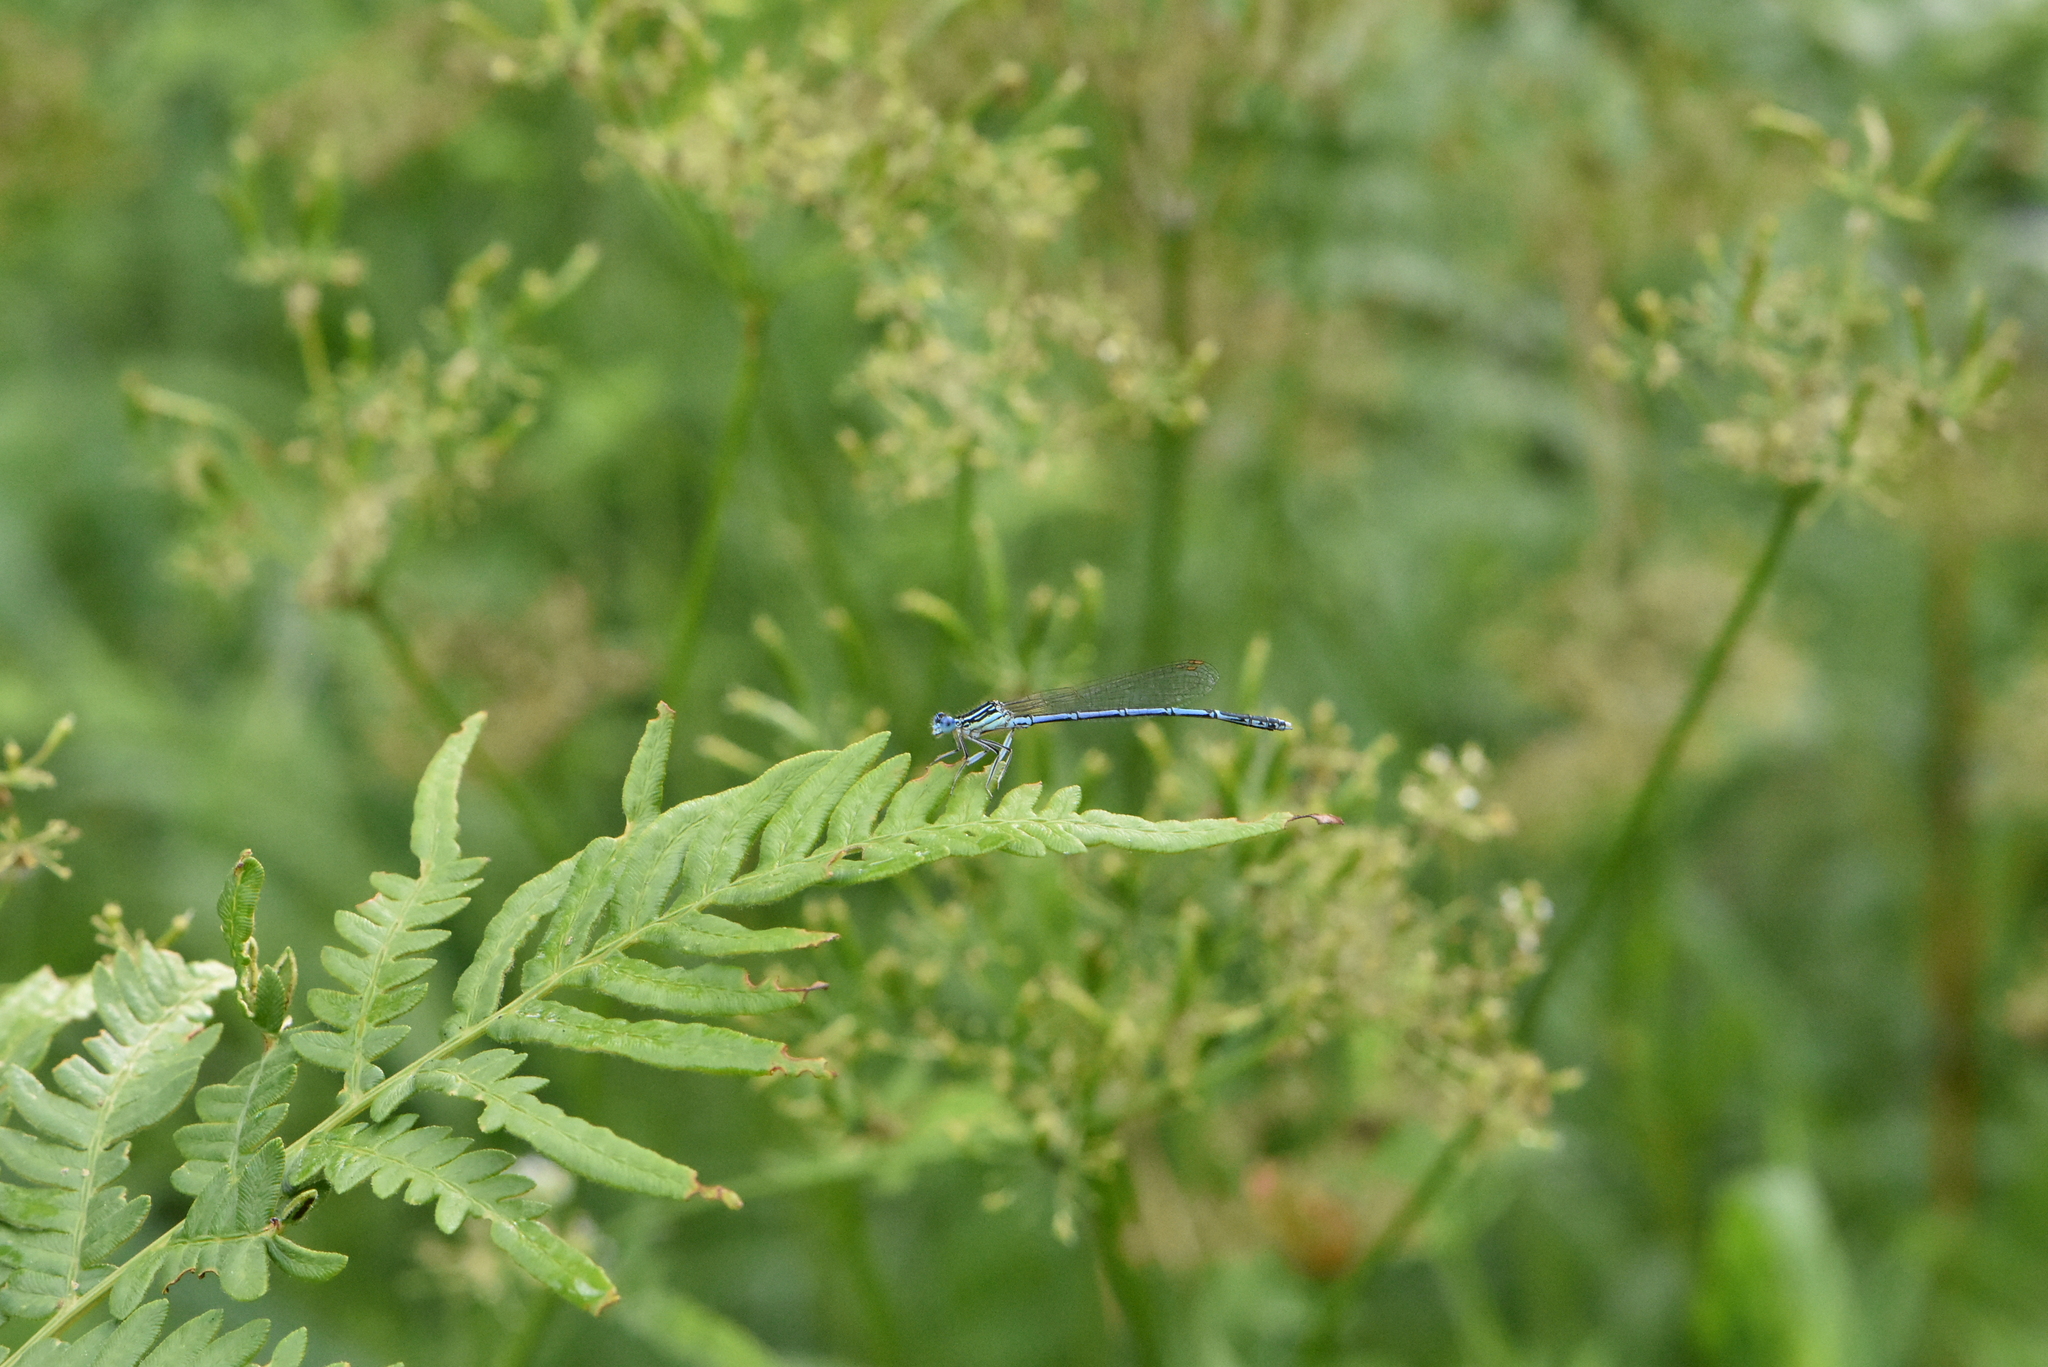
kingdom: Animalia
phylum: Arthropoda
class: Insecta
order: Odonata
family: Platycnemididae
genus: Platycnemis
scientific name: Platycnemis pennipes
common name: White-legged damselfly
